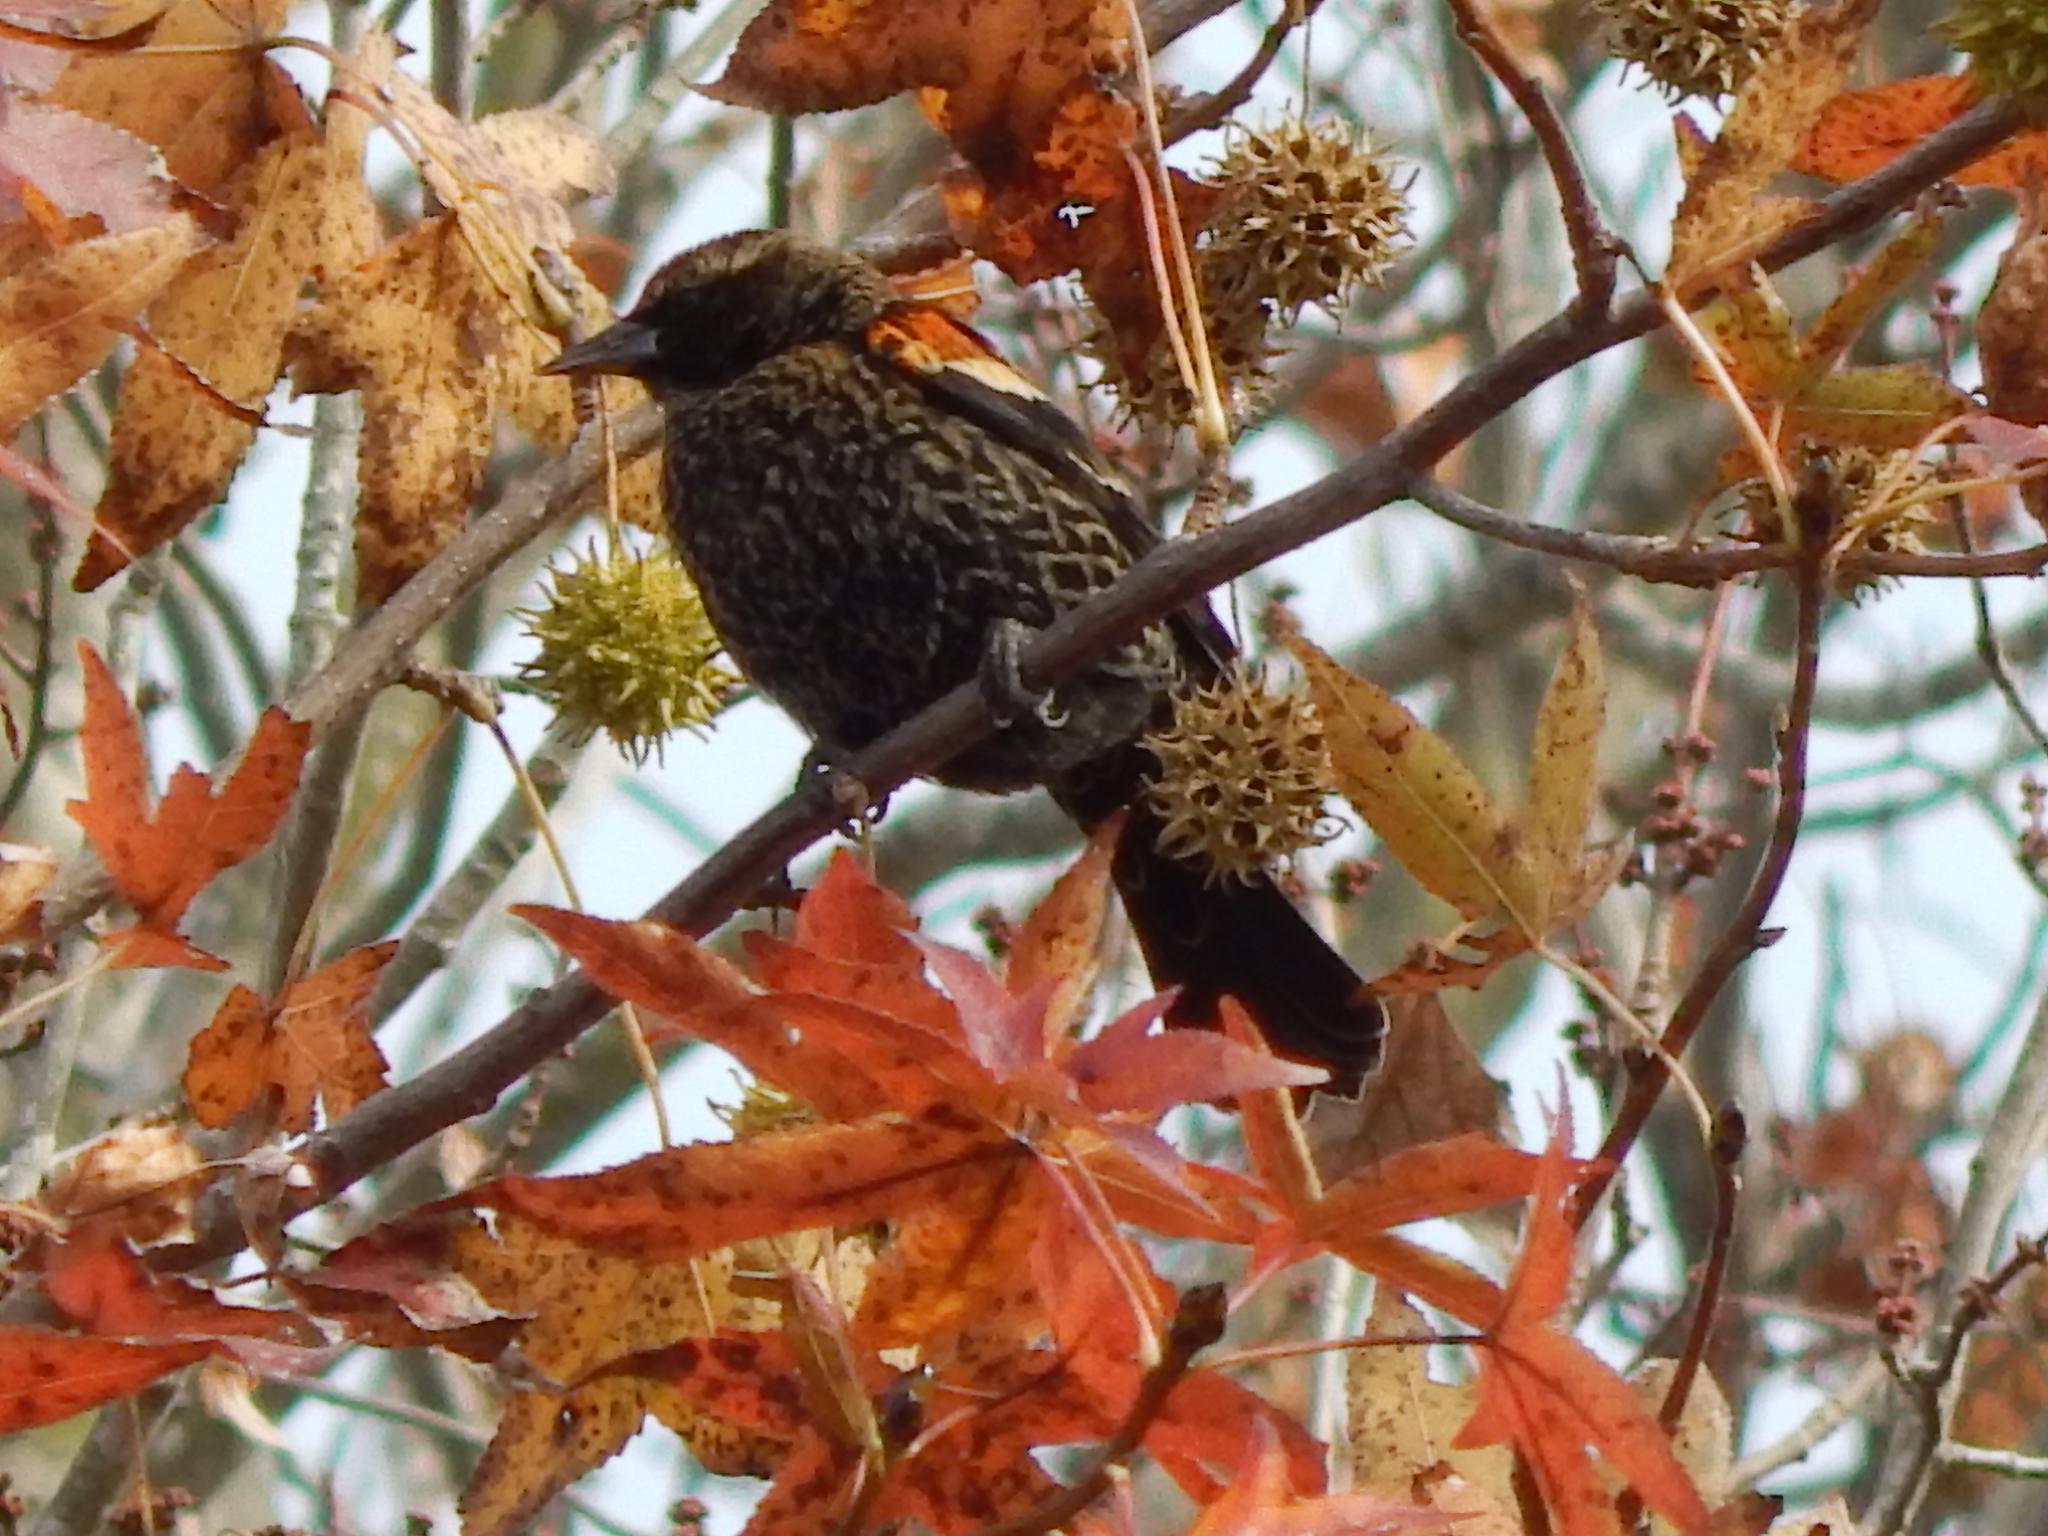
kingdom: Animalia
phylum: Chordata
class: Aves
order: Passeriformes
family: Icteridae
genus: Agelaius
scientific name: Agelaius phoeniceus
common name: Red-winged blackbird
